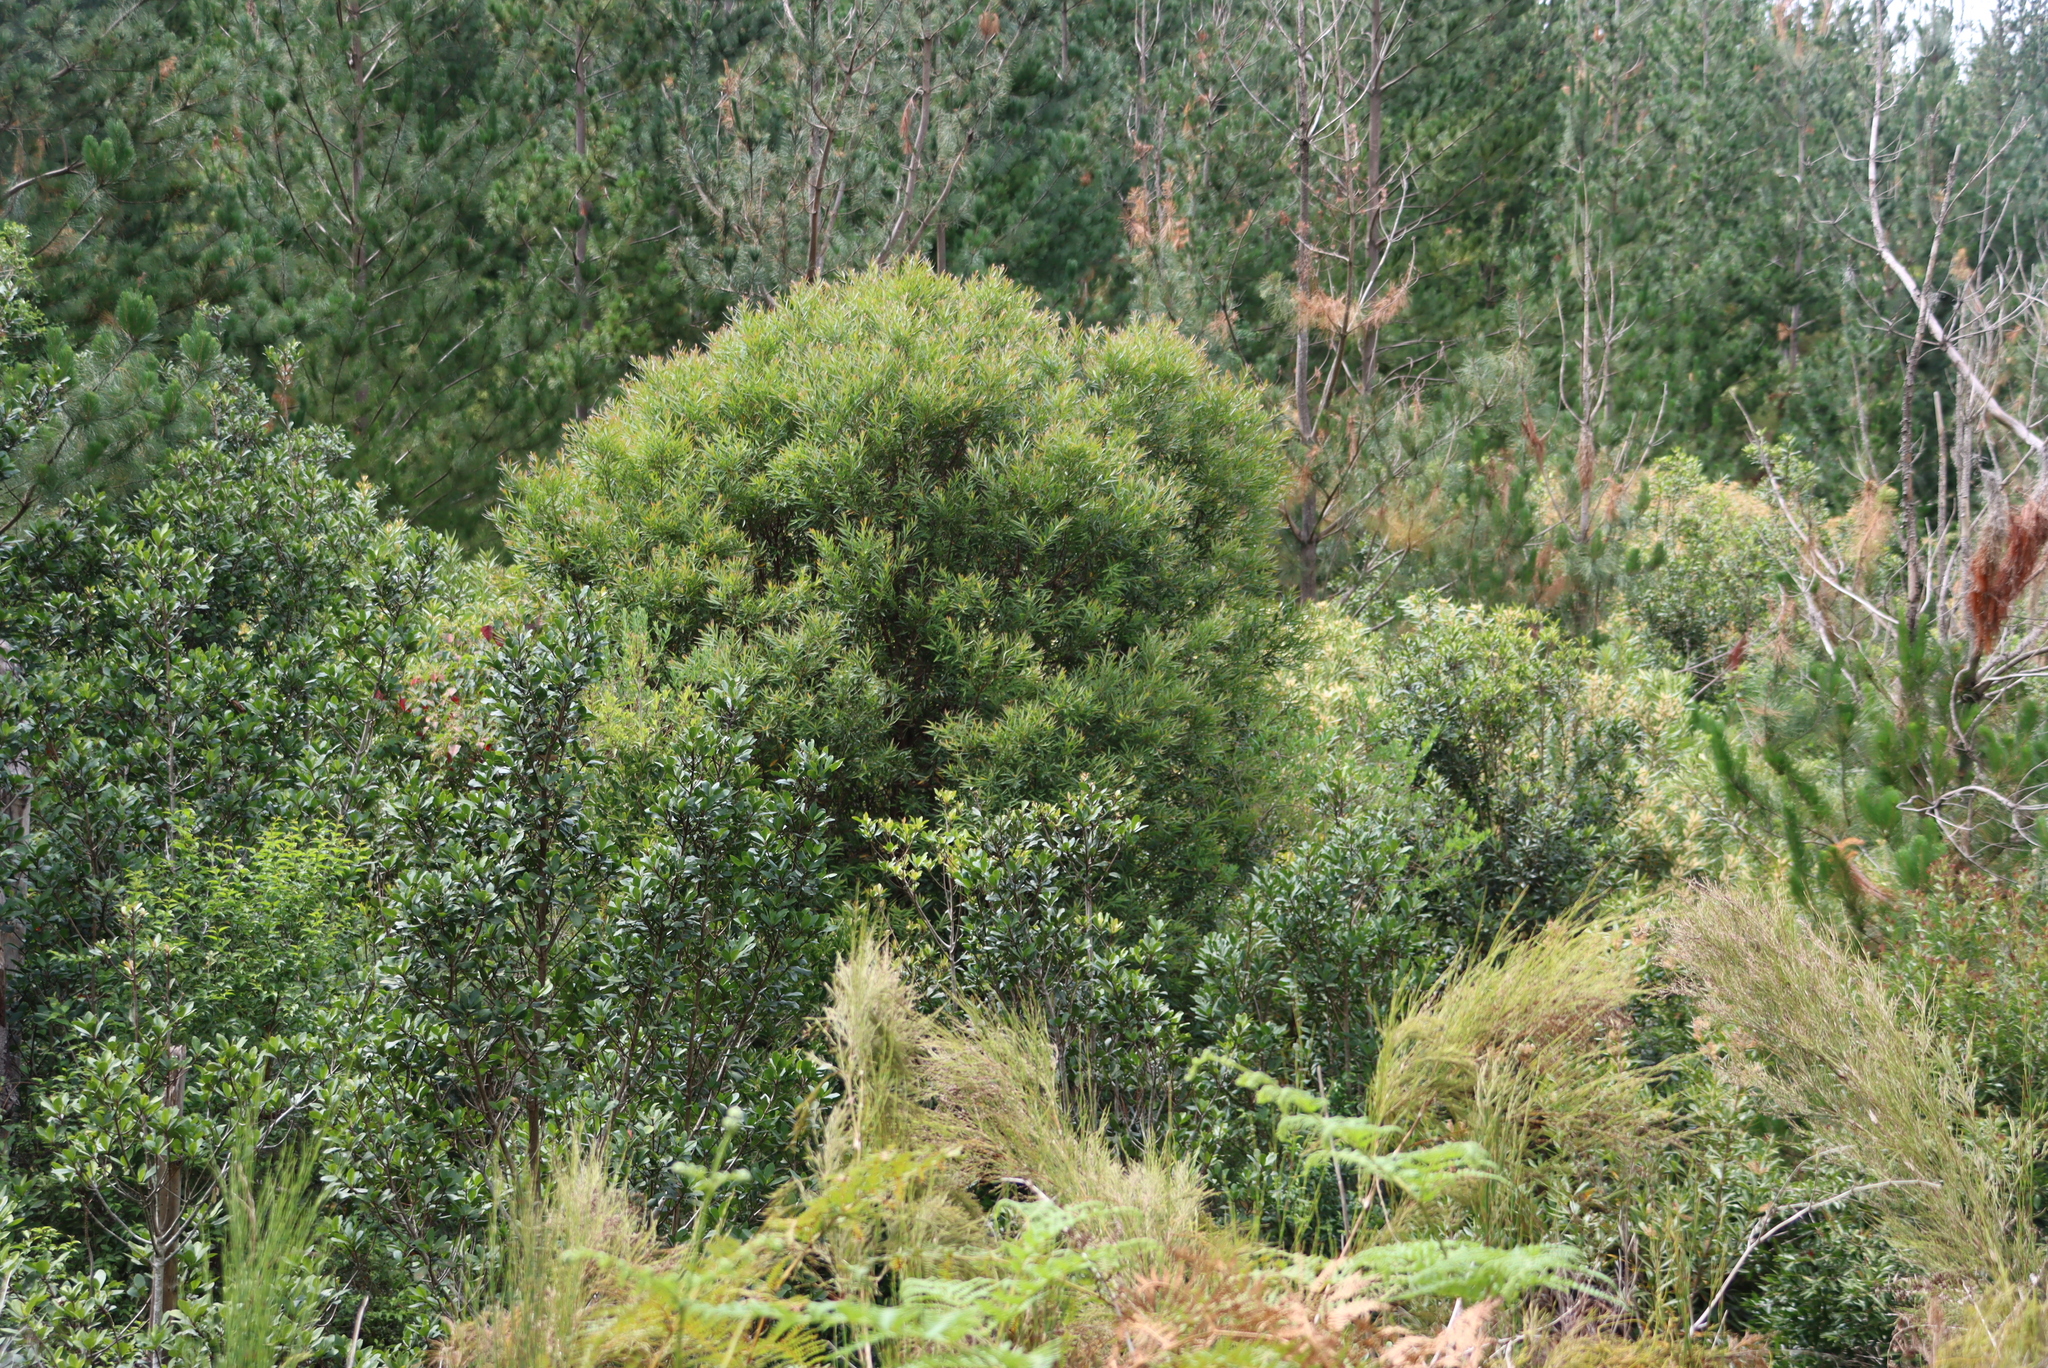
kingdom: Plantae
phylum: Tracheophyta
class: Magnoliopsida
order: Proteales
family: Proteaceae
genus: Hakea
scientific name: Hakea salicifolia
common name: Willow hakea
